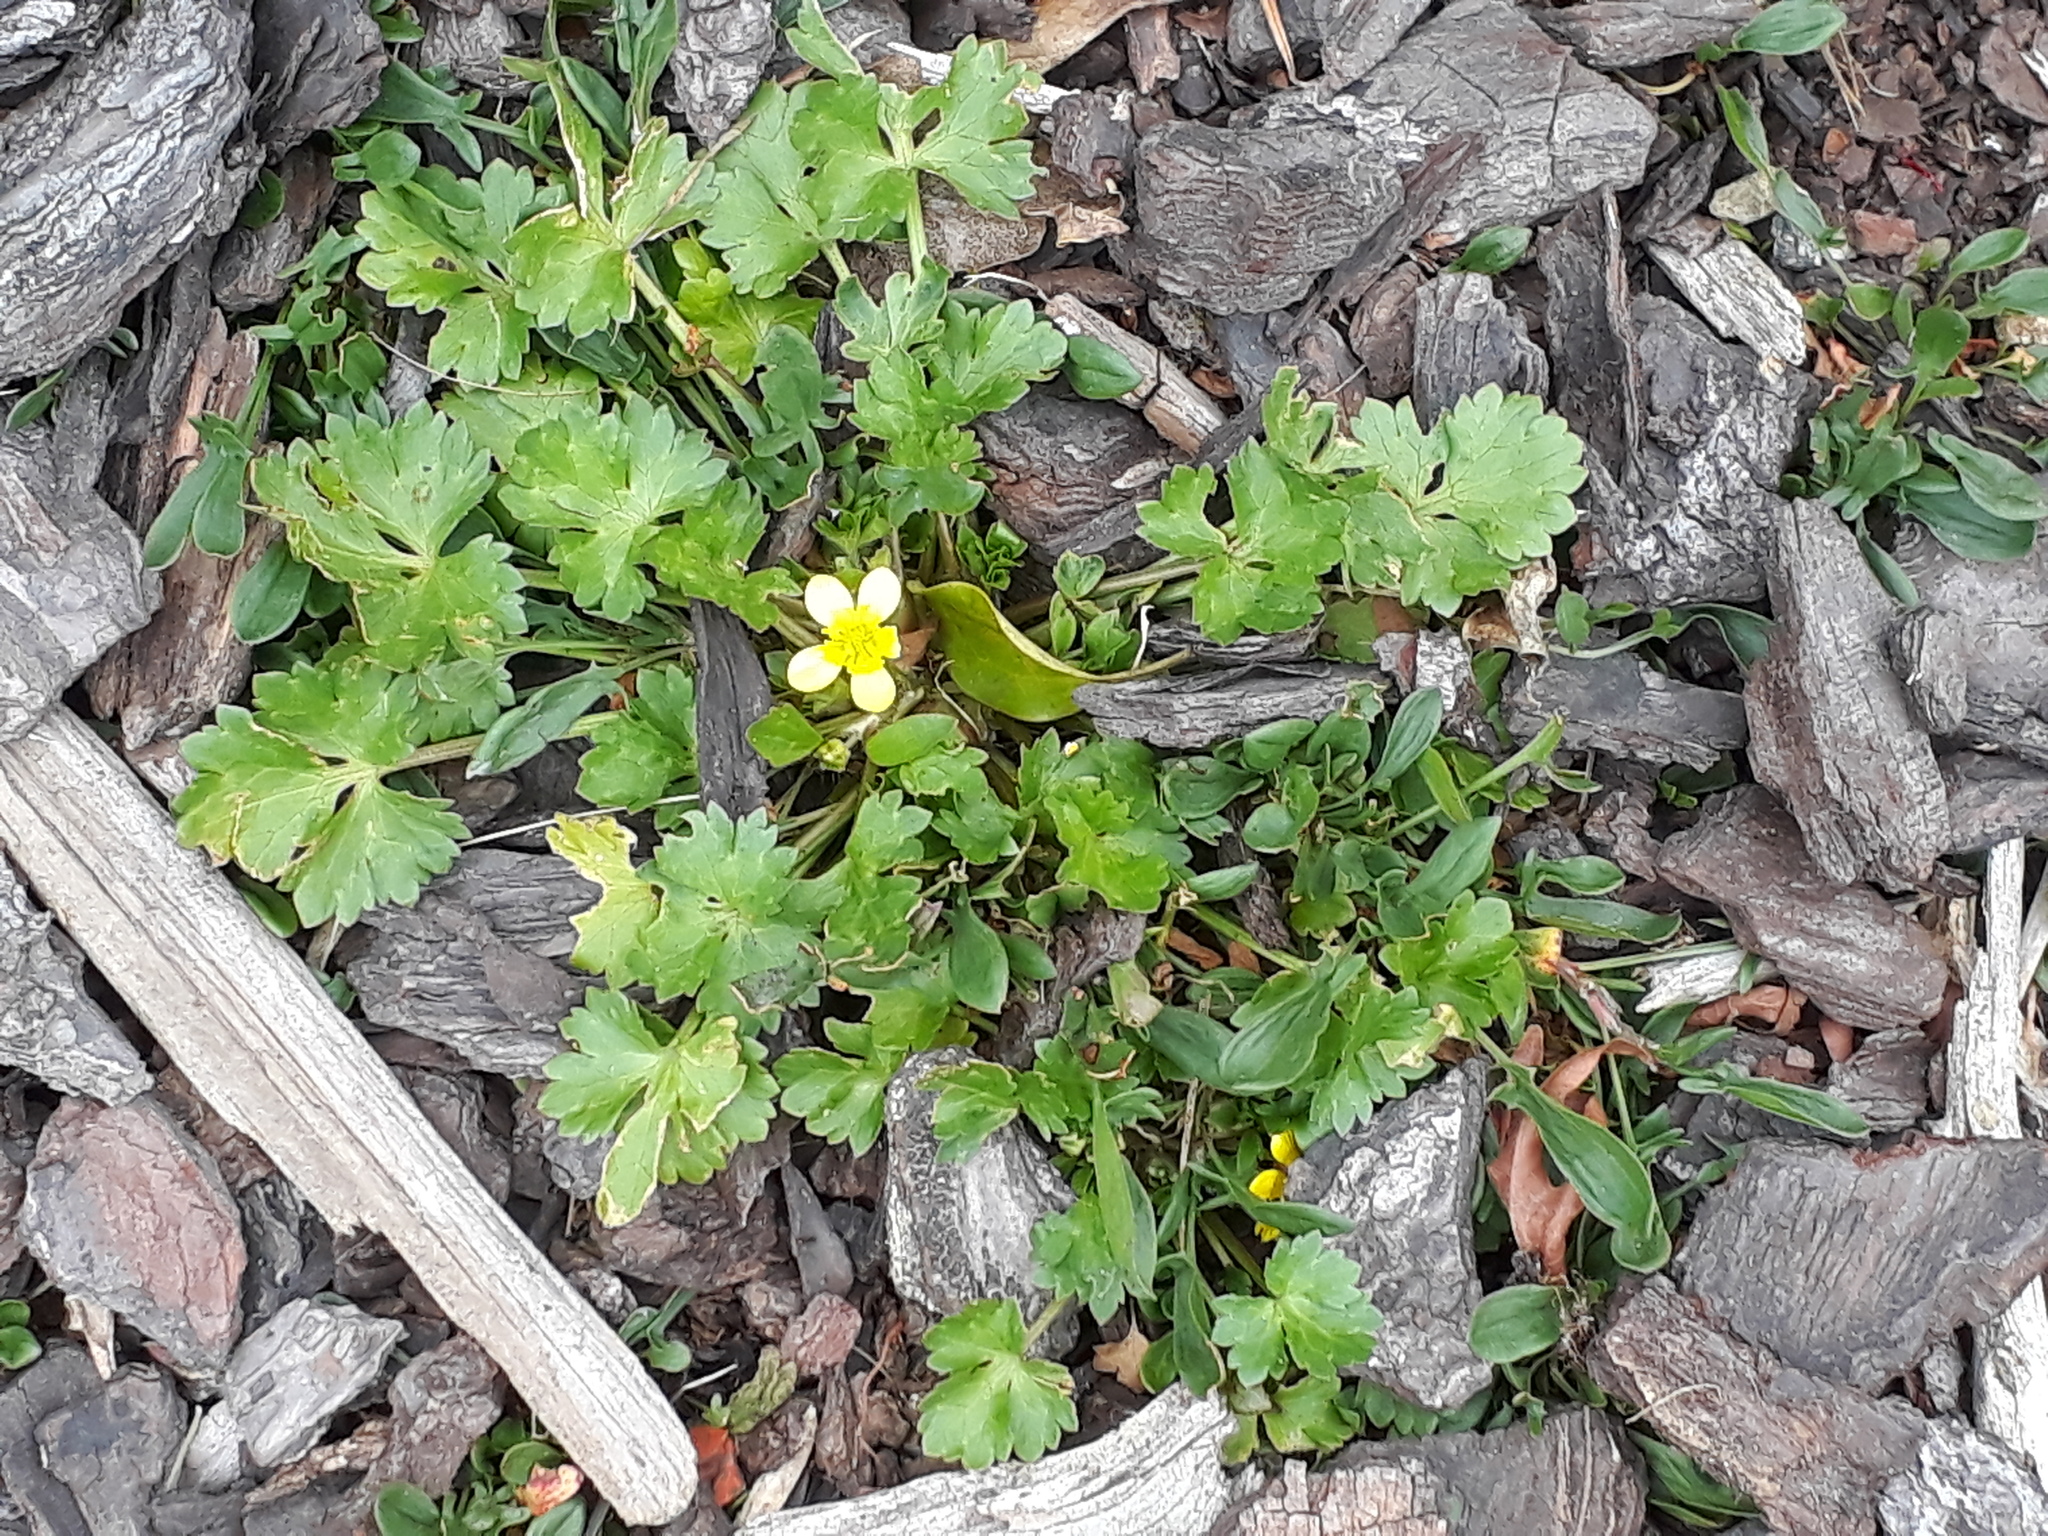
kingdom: Plantae
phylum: Tracheophyta
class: Magnoliopsida
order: Ranunculales
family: Ranunculaceae
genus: Ranunculus
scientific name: Ranunculus repens
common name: Creeping buttercup
